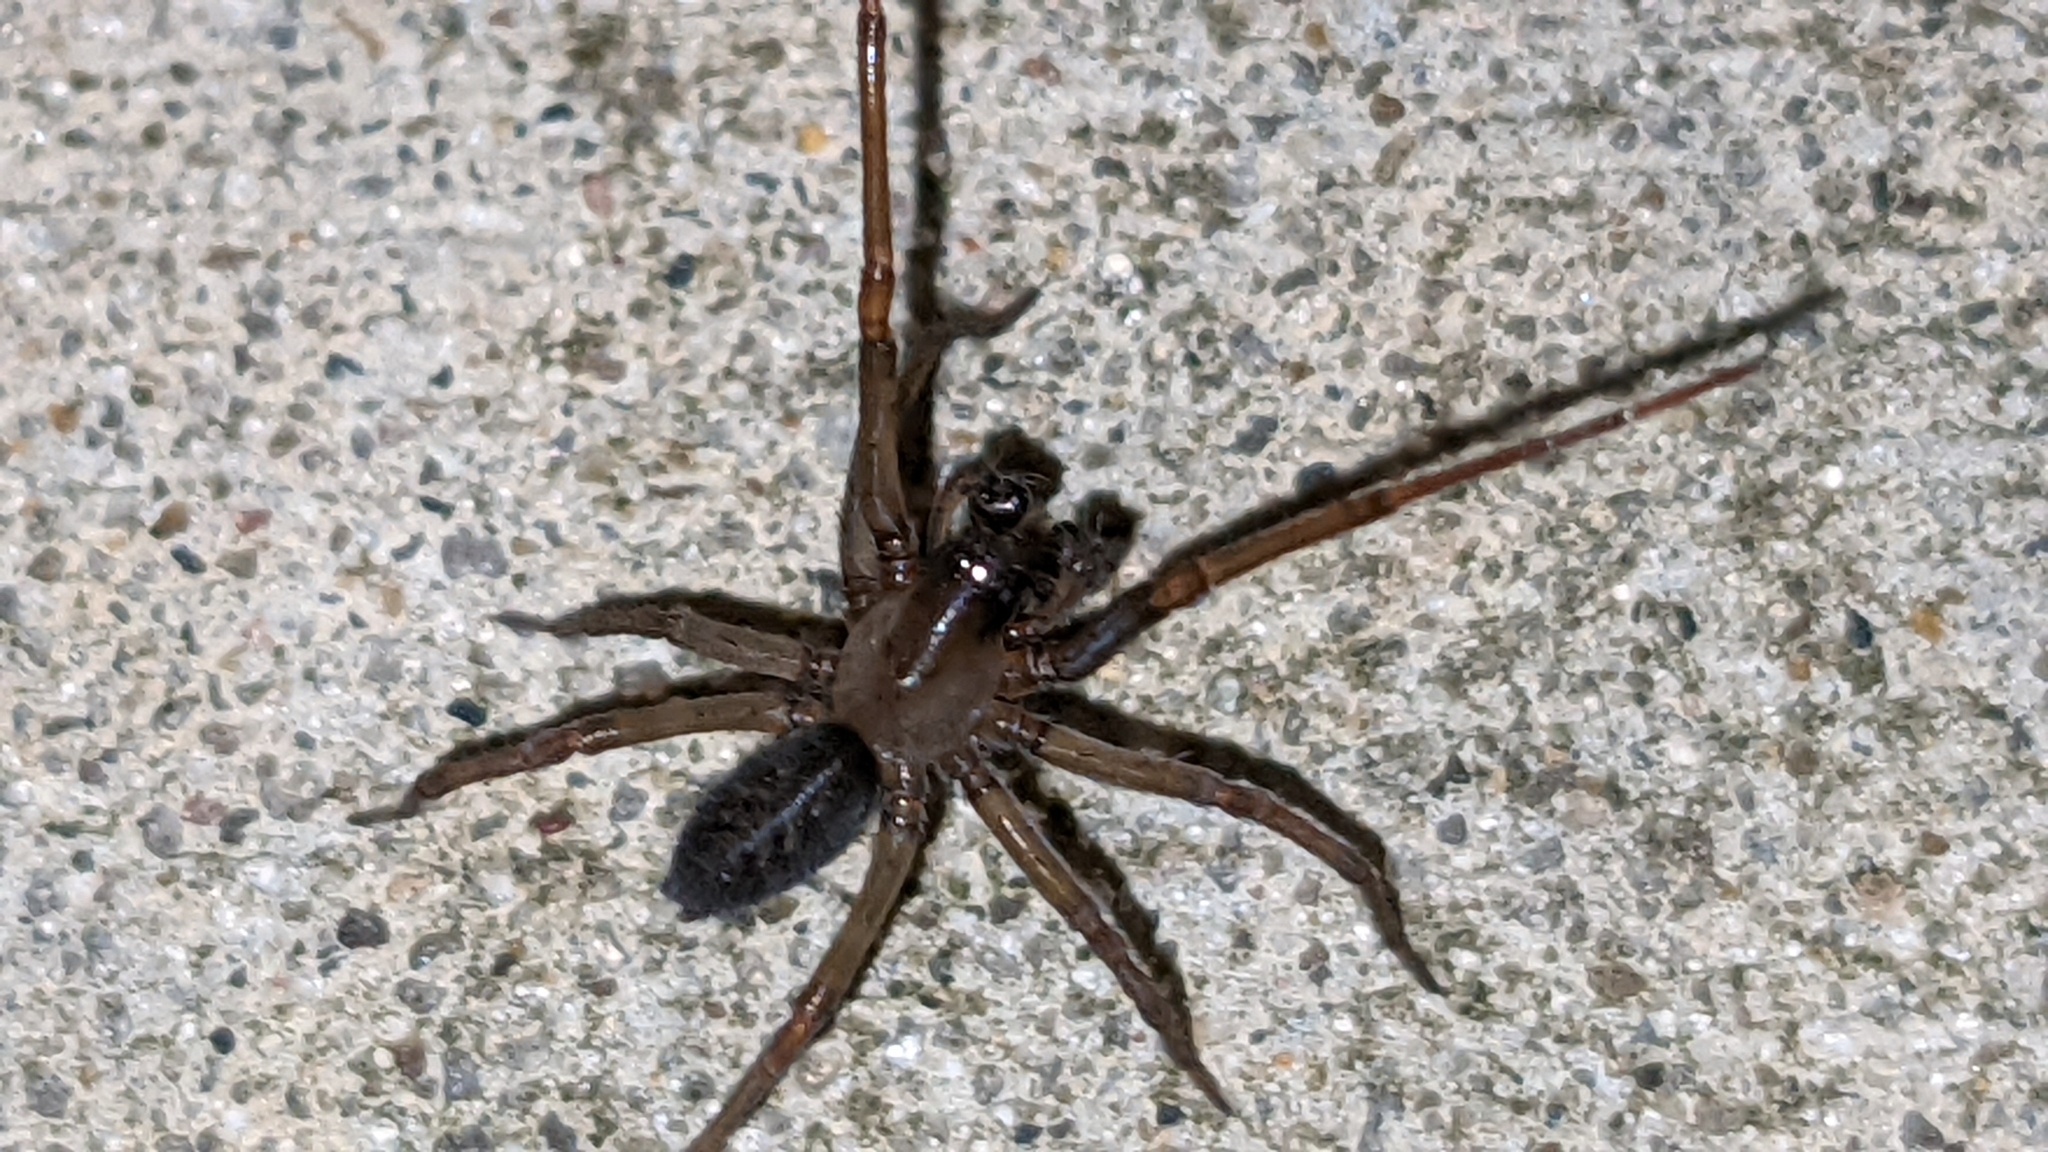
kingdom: Animalia
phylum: Arthropoda
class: Arachnida
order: Araneae
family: Desidae
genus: Metaltella
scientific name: Metaltella simoni
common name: Cribellate spider
